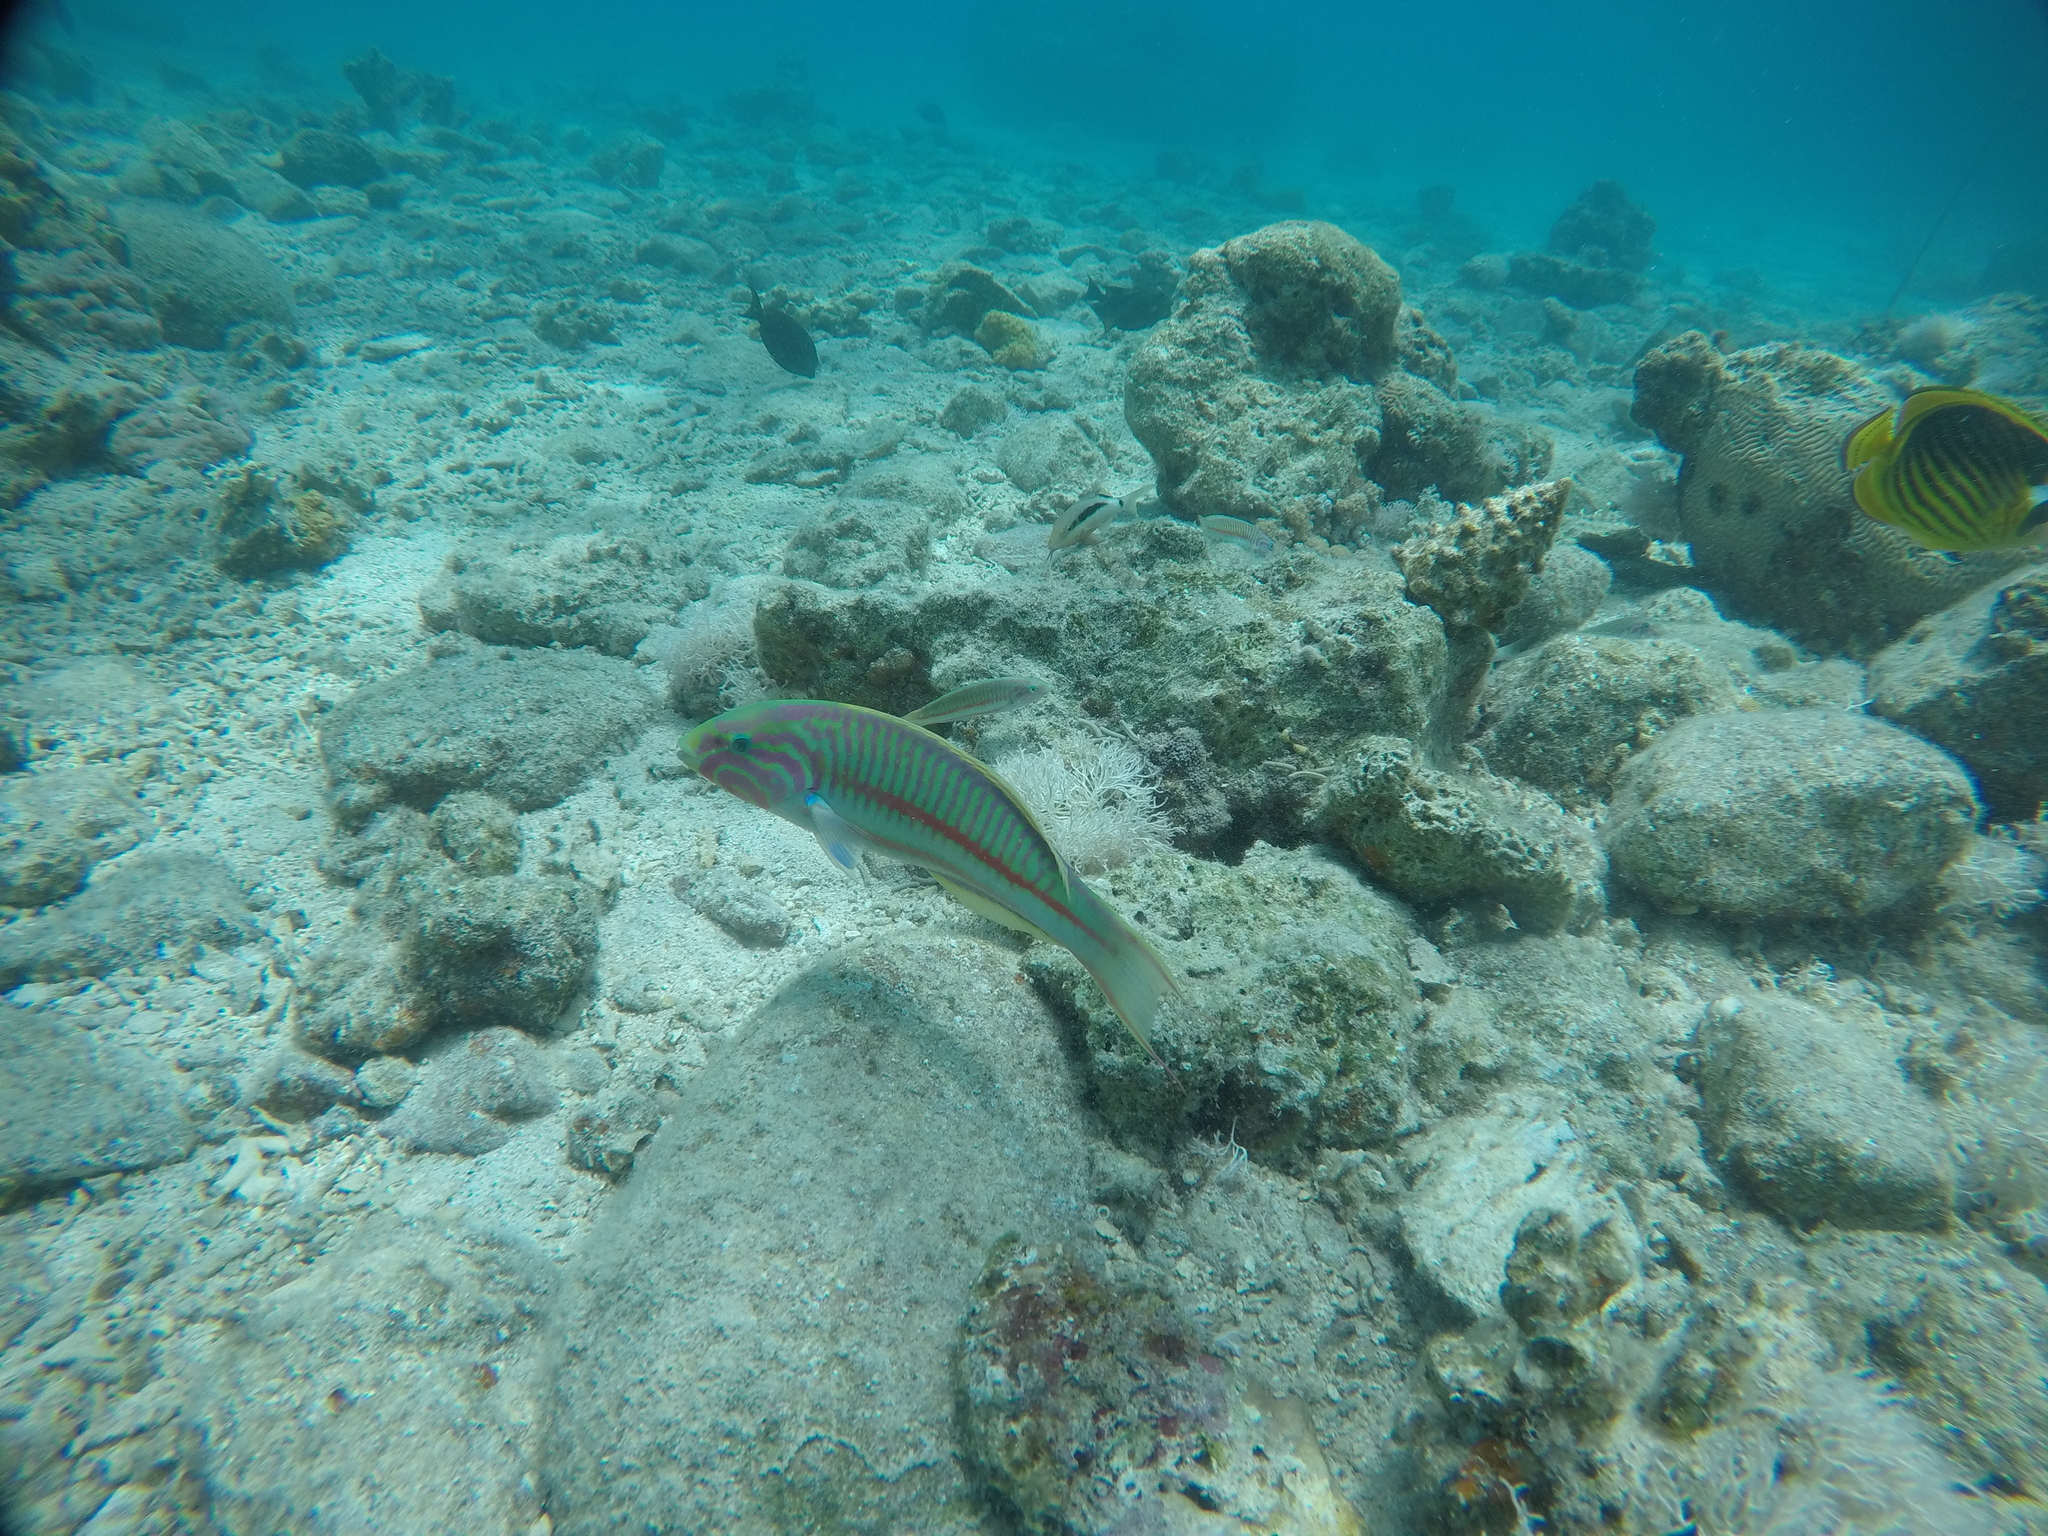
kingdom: Animalia
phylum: Chordata
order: Perciformes
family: Labridae
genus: Thalassoma
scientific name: Thalassoma rueppellii
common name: Klunzinger's wrasse
